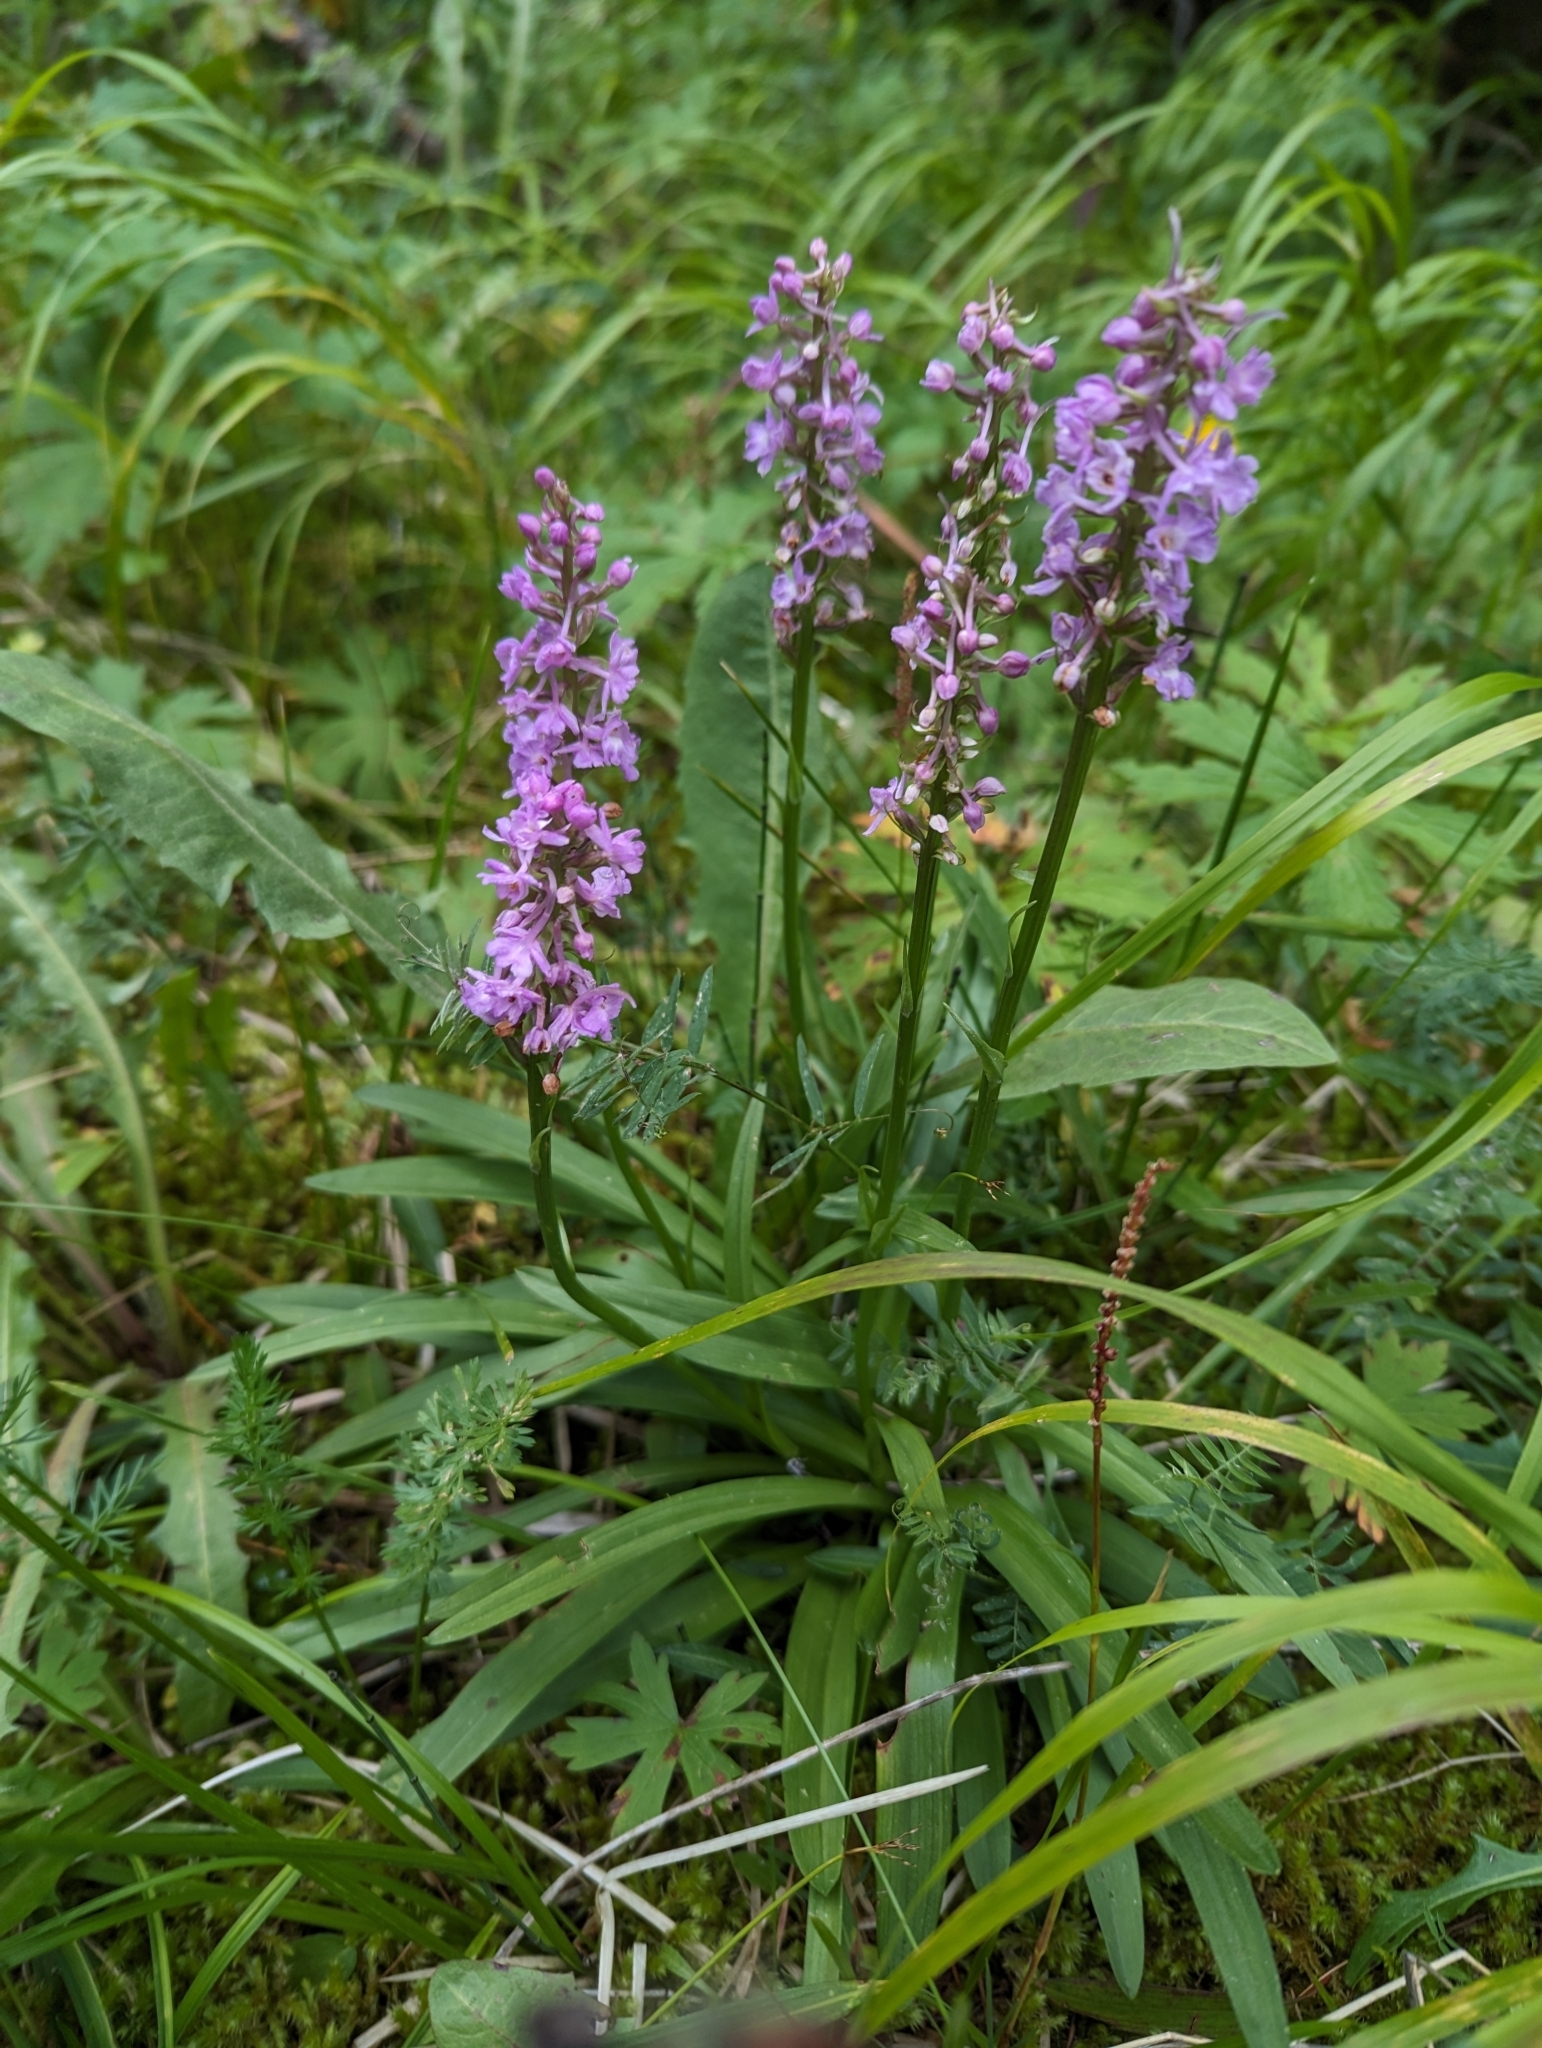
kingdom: Plantae
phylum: Tracheophyta
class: Liliopsida
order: Asparagales
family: Orchidaceae
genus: Gymnadenia
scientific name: Gymnadenia conopsea
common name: Fragrant orchid
